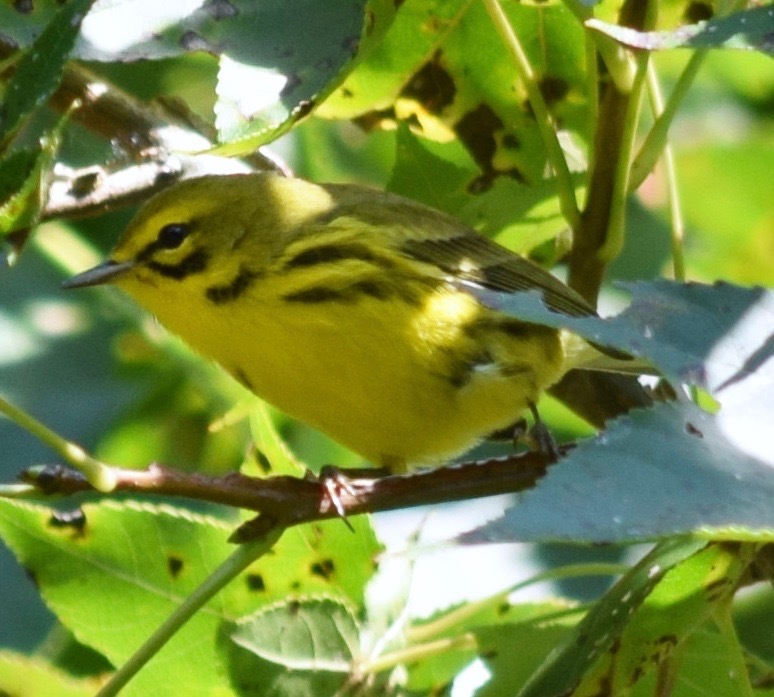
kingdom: Animalia
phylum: Chordata
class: Aves
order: Passeriformes
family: Parulidae
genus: Setophaga
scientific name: Setophaga discolor
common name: Prairie warbler
